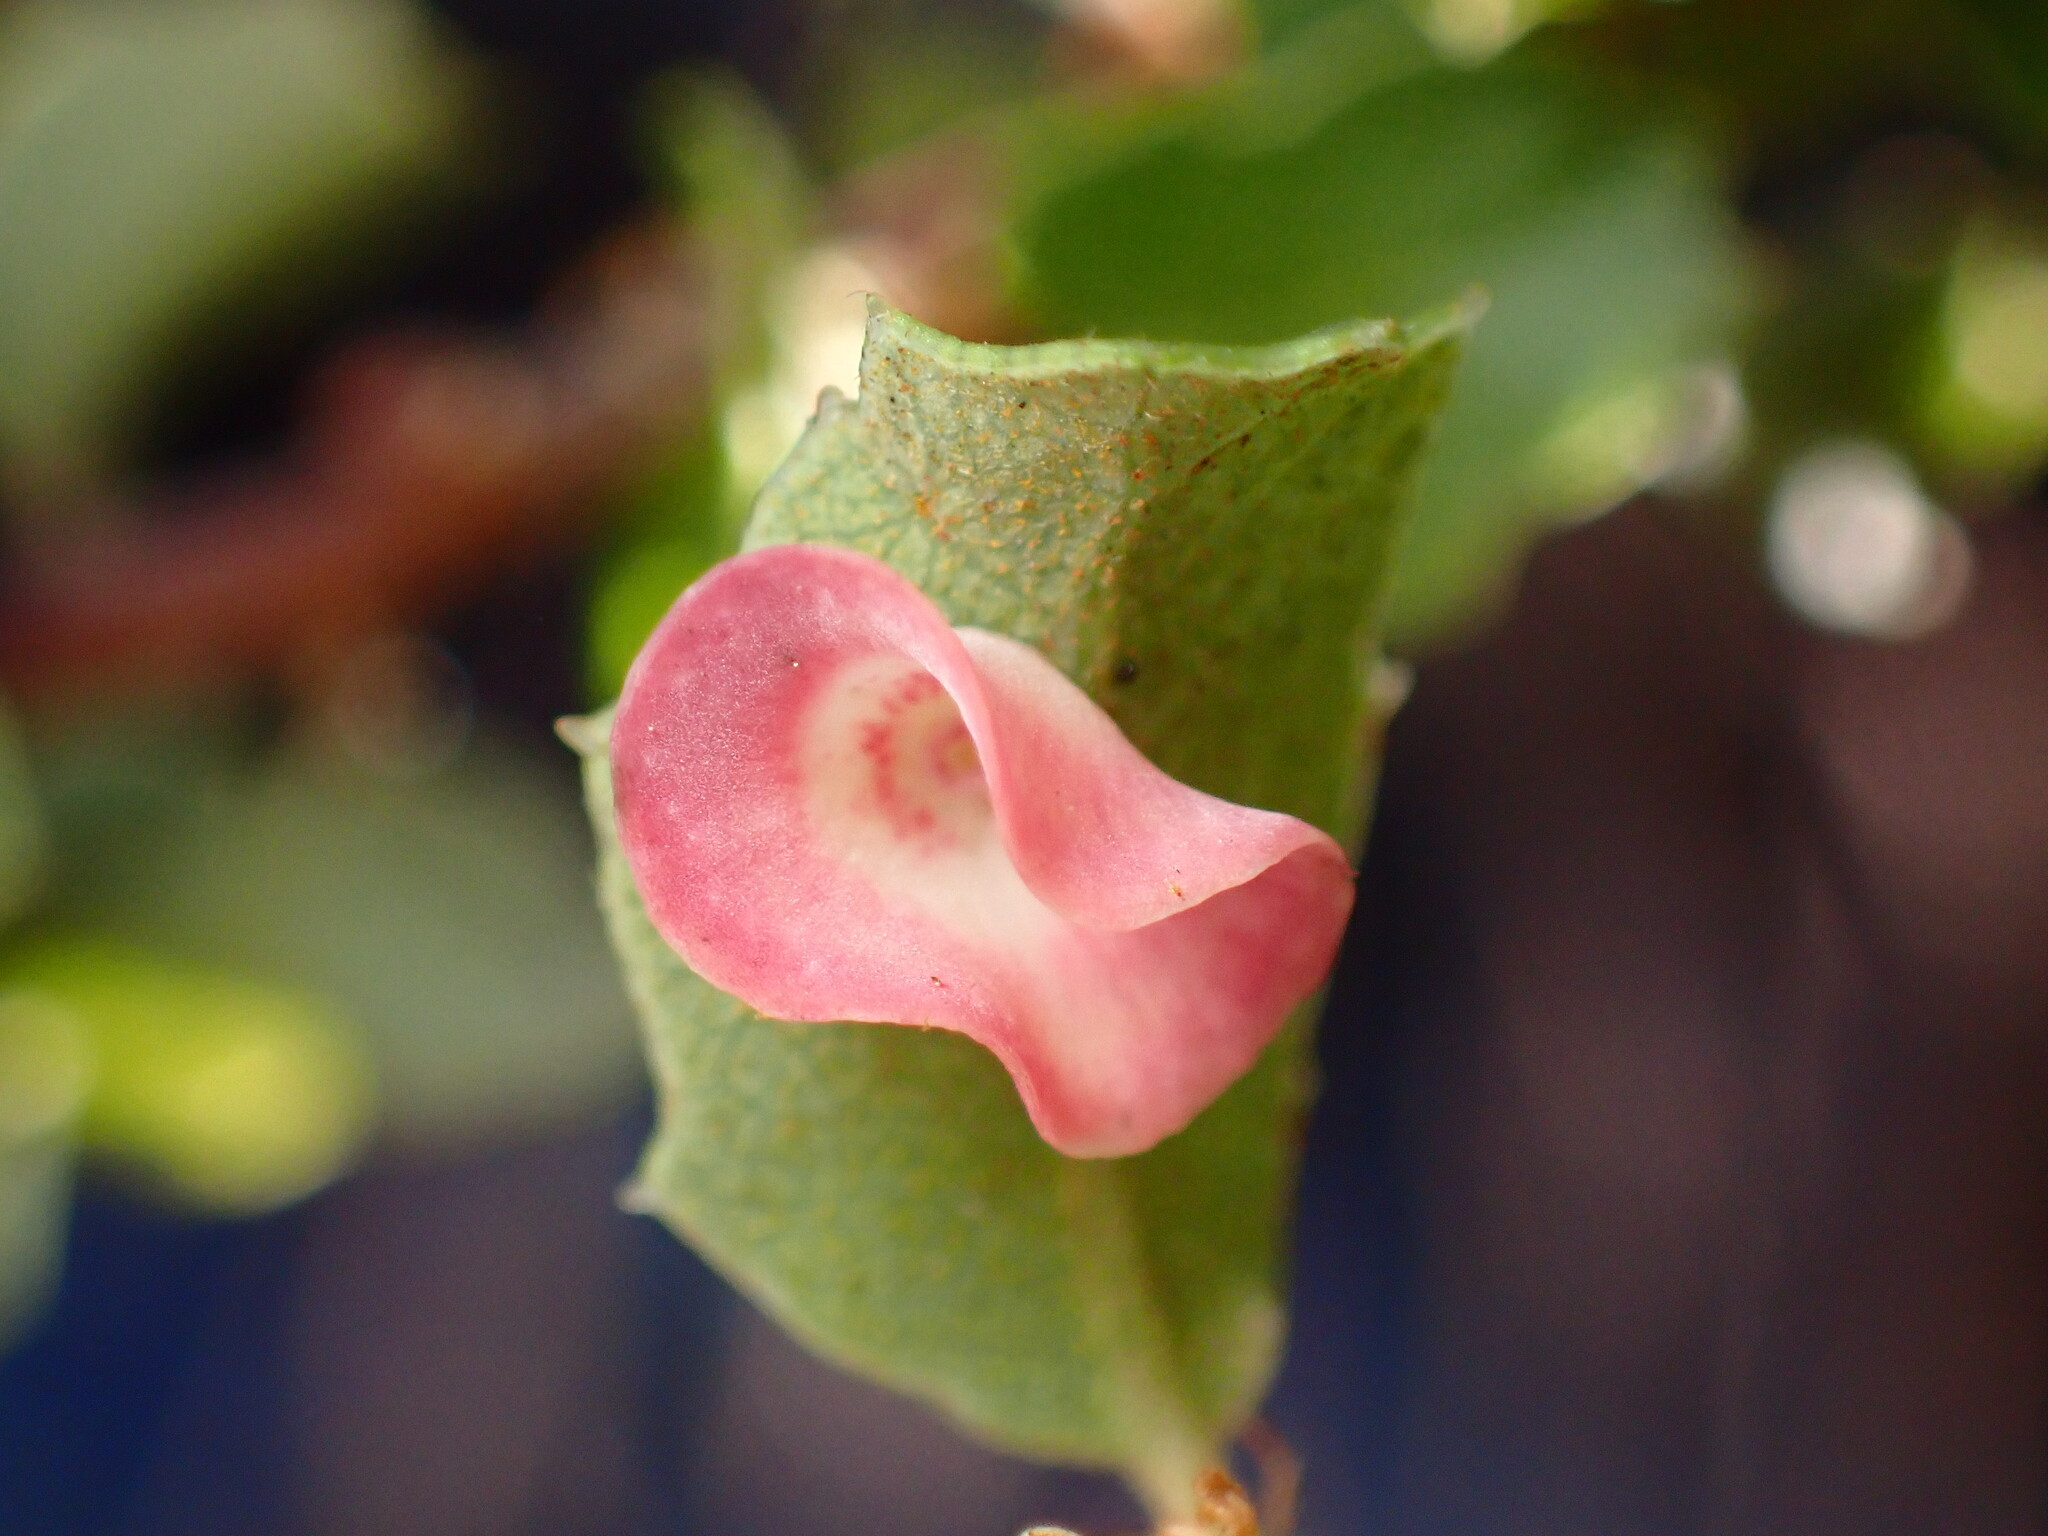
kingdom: Animalia
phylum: Arthropoda
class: Insecta
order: Hymenoptera
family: Cynipidae
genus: Andricus
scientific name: Andricus
